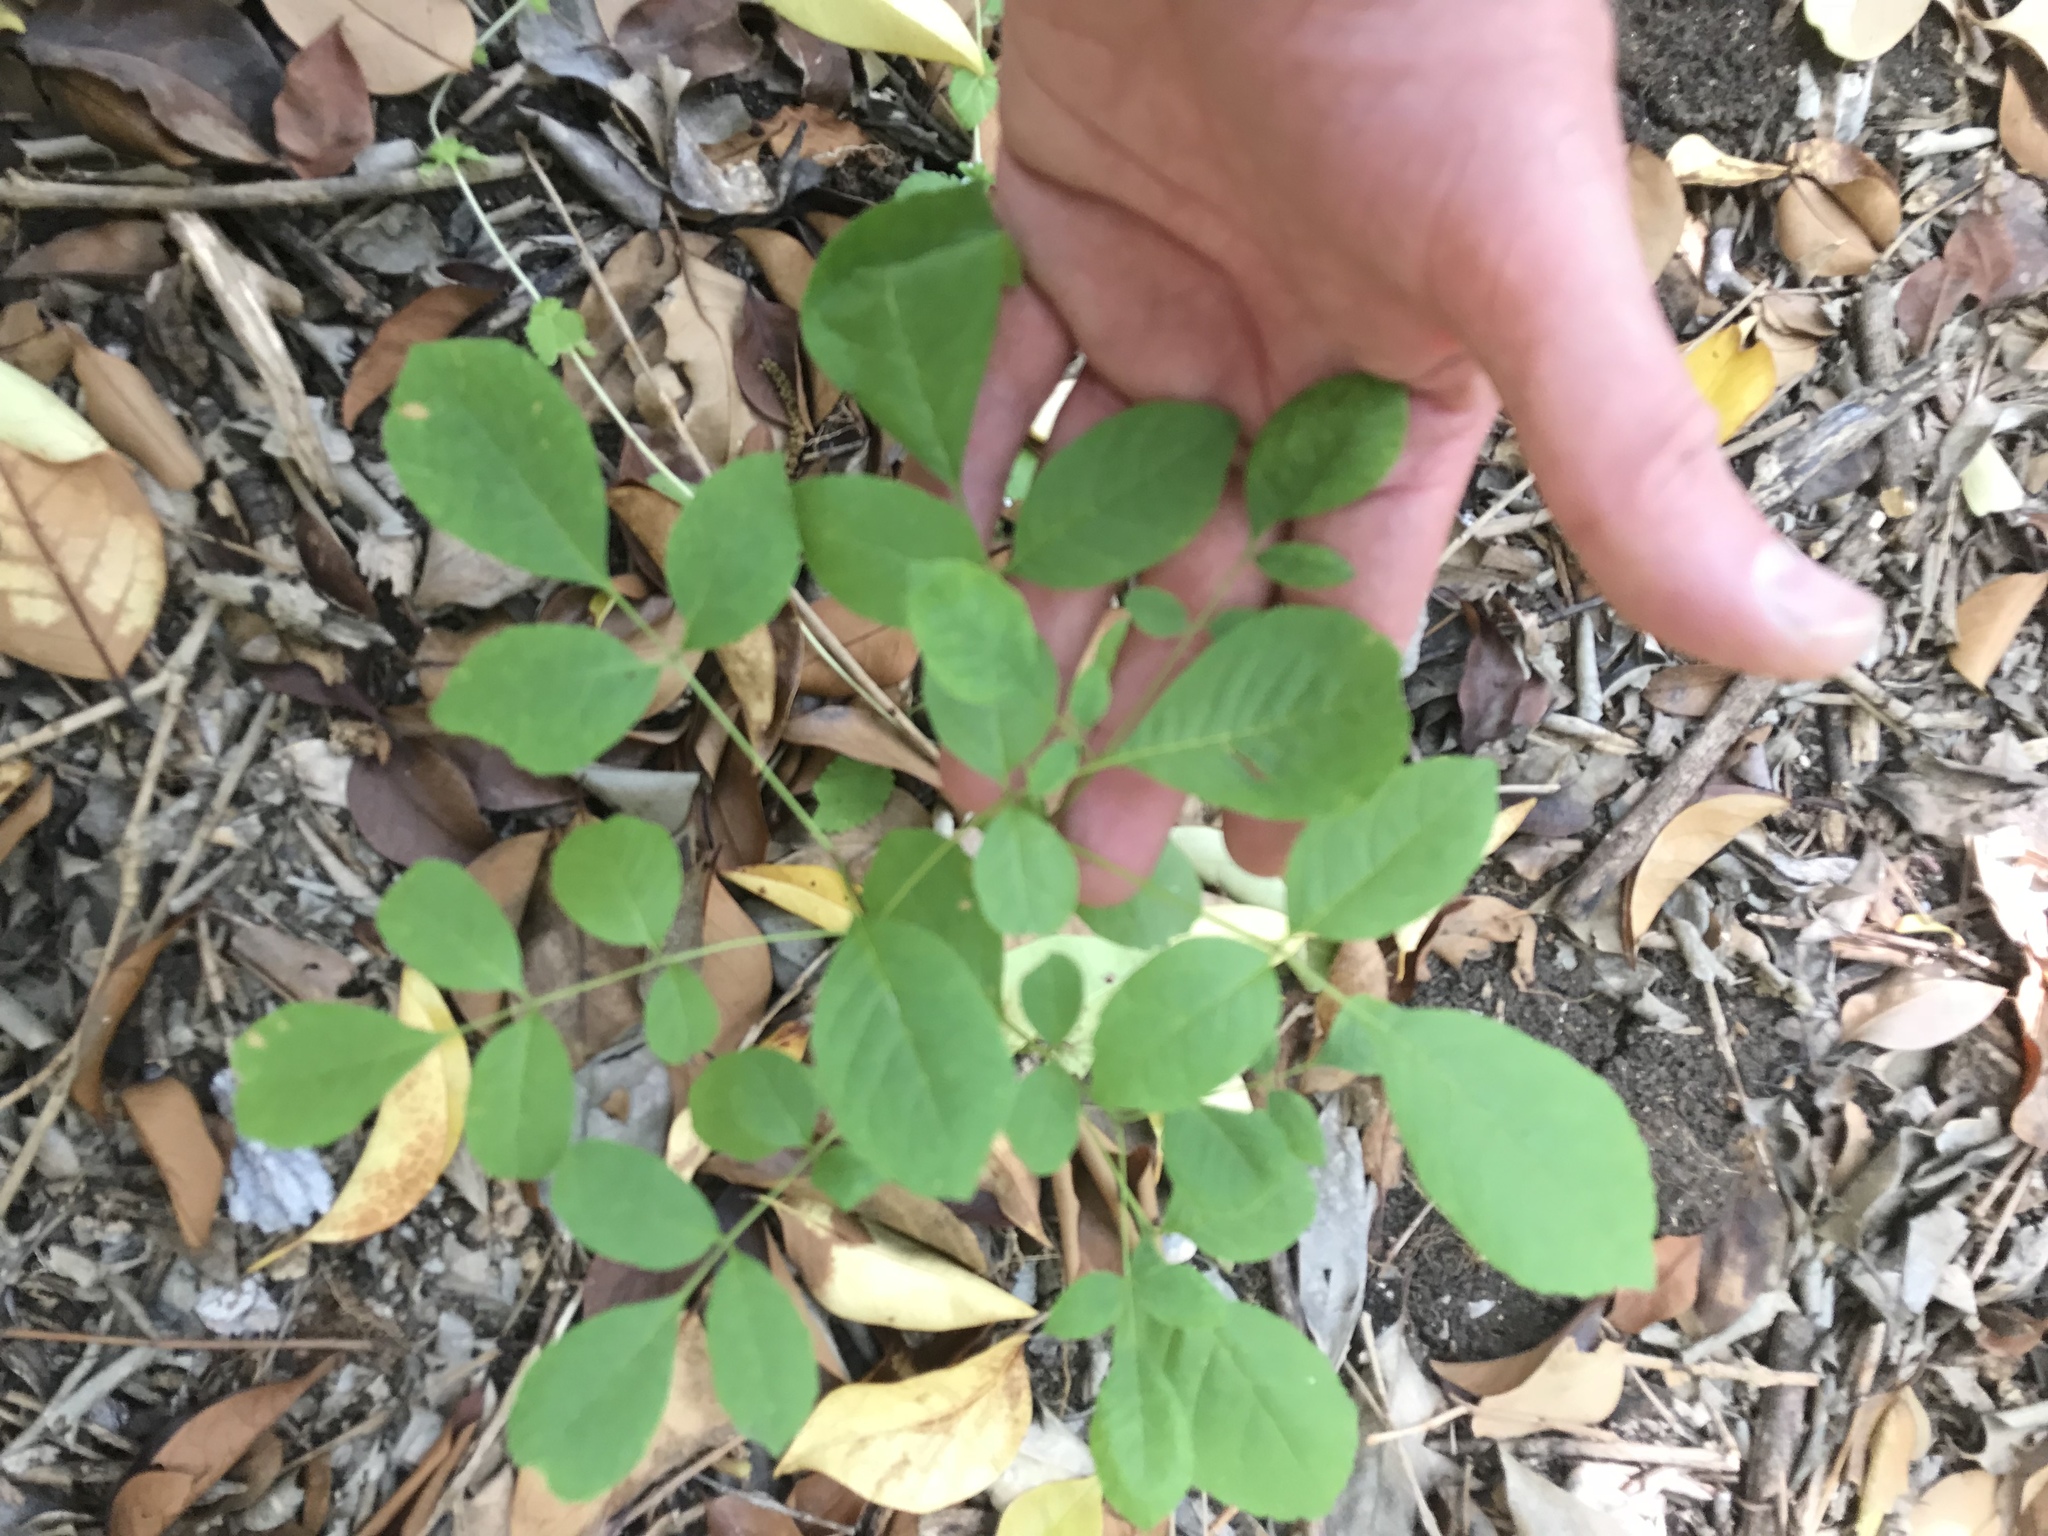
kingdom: Plantae
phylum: Tracheophyta
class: Magnoliopsida
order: Lamiales
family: Oleaceae
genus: Fraxinus
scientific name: Fraxinus albicans
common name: Texas ash
